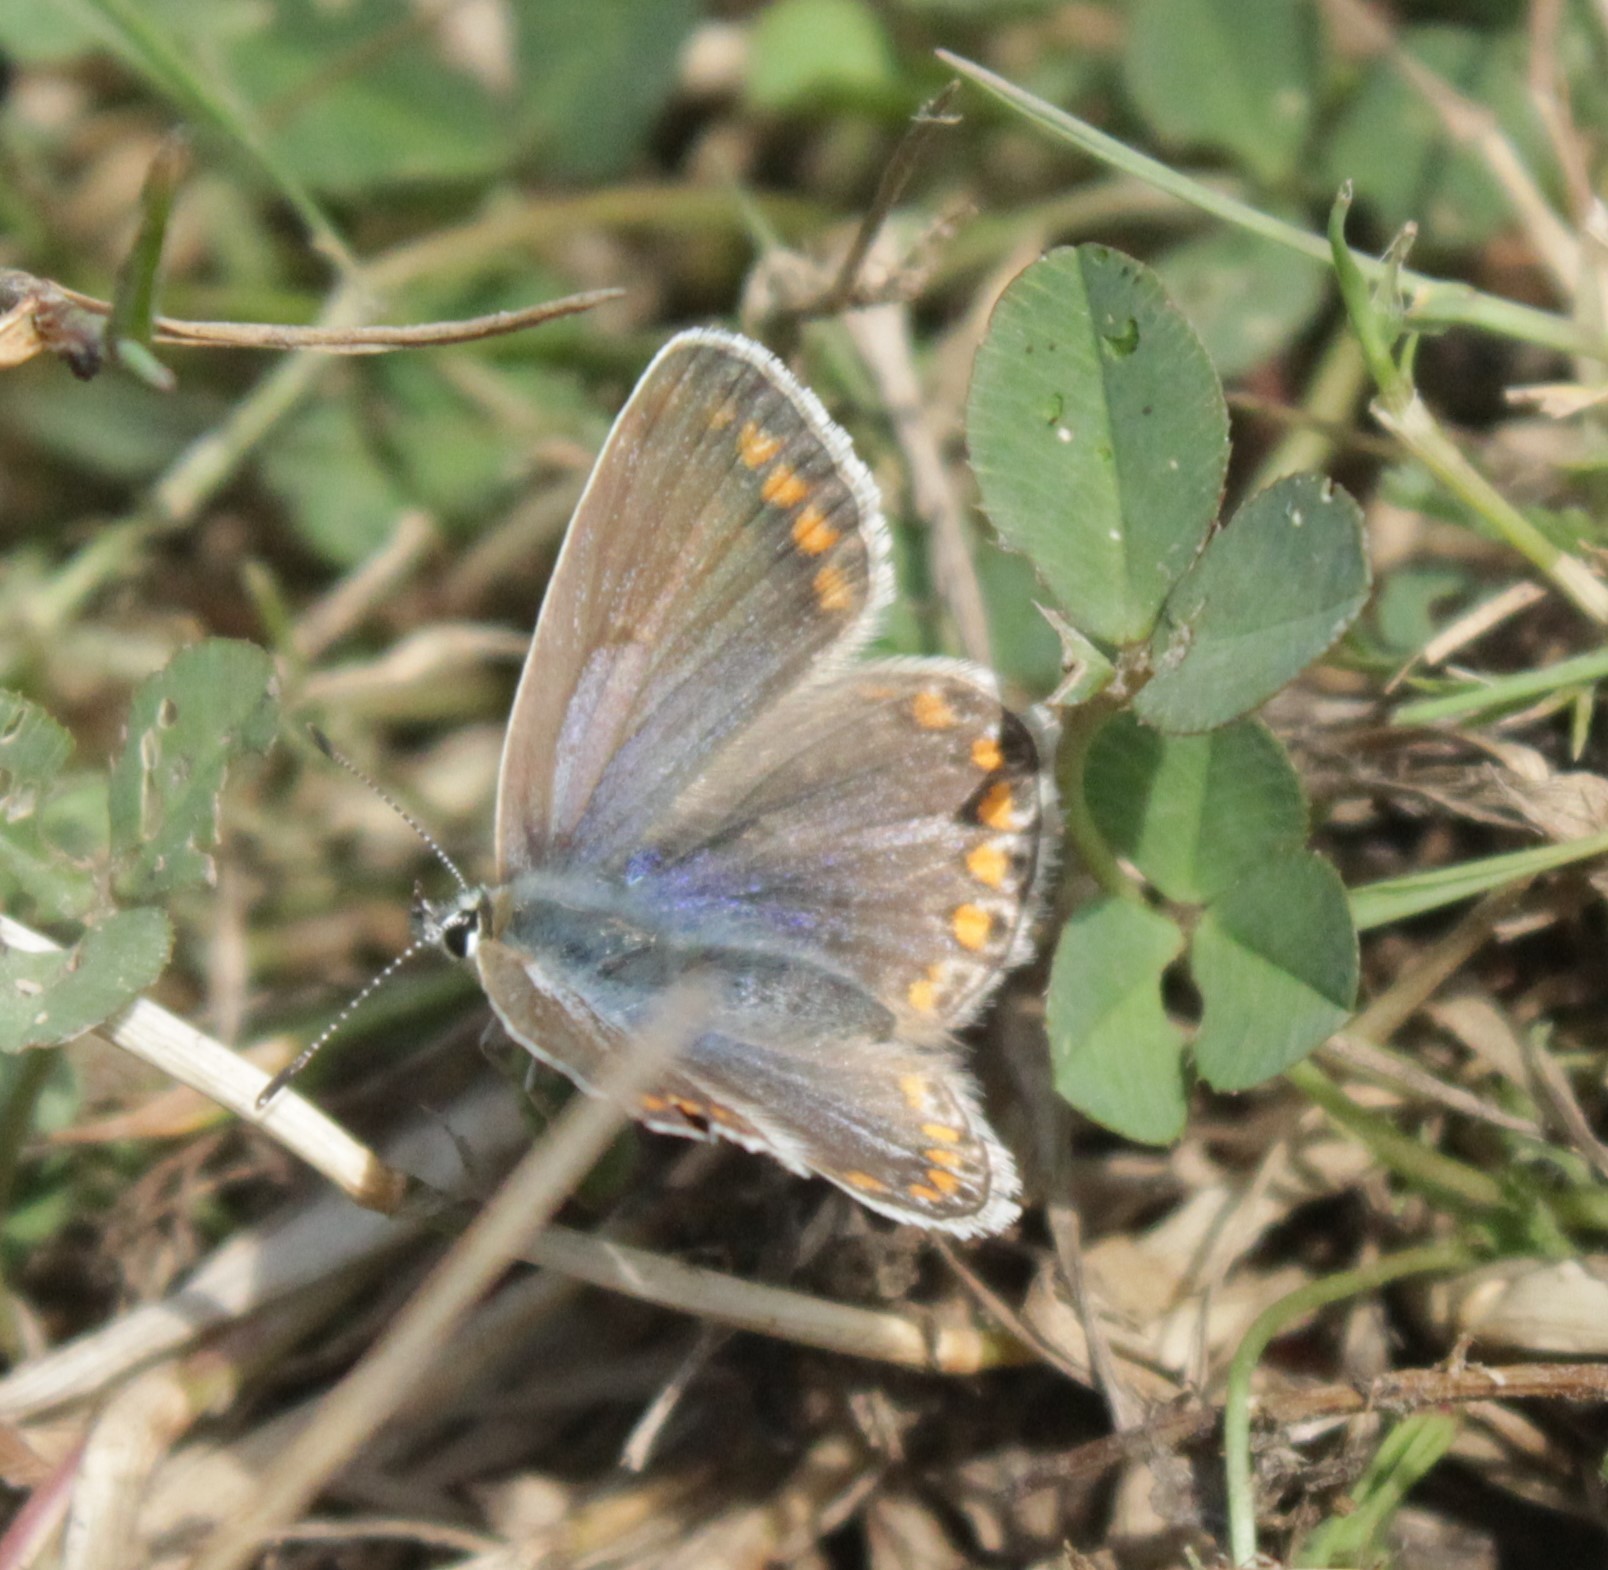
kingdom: Animalia
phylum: Arthropoda
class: Insecta
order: Lepidoptera
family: Lycaenidae
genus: Polyommatus
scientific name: Polyommatus icarus
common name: Common blue
